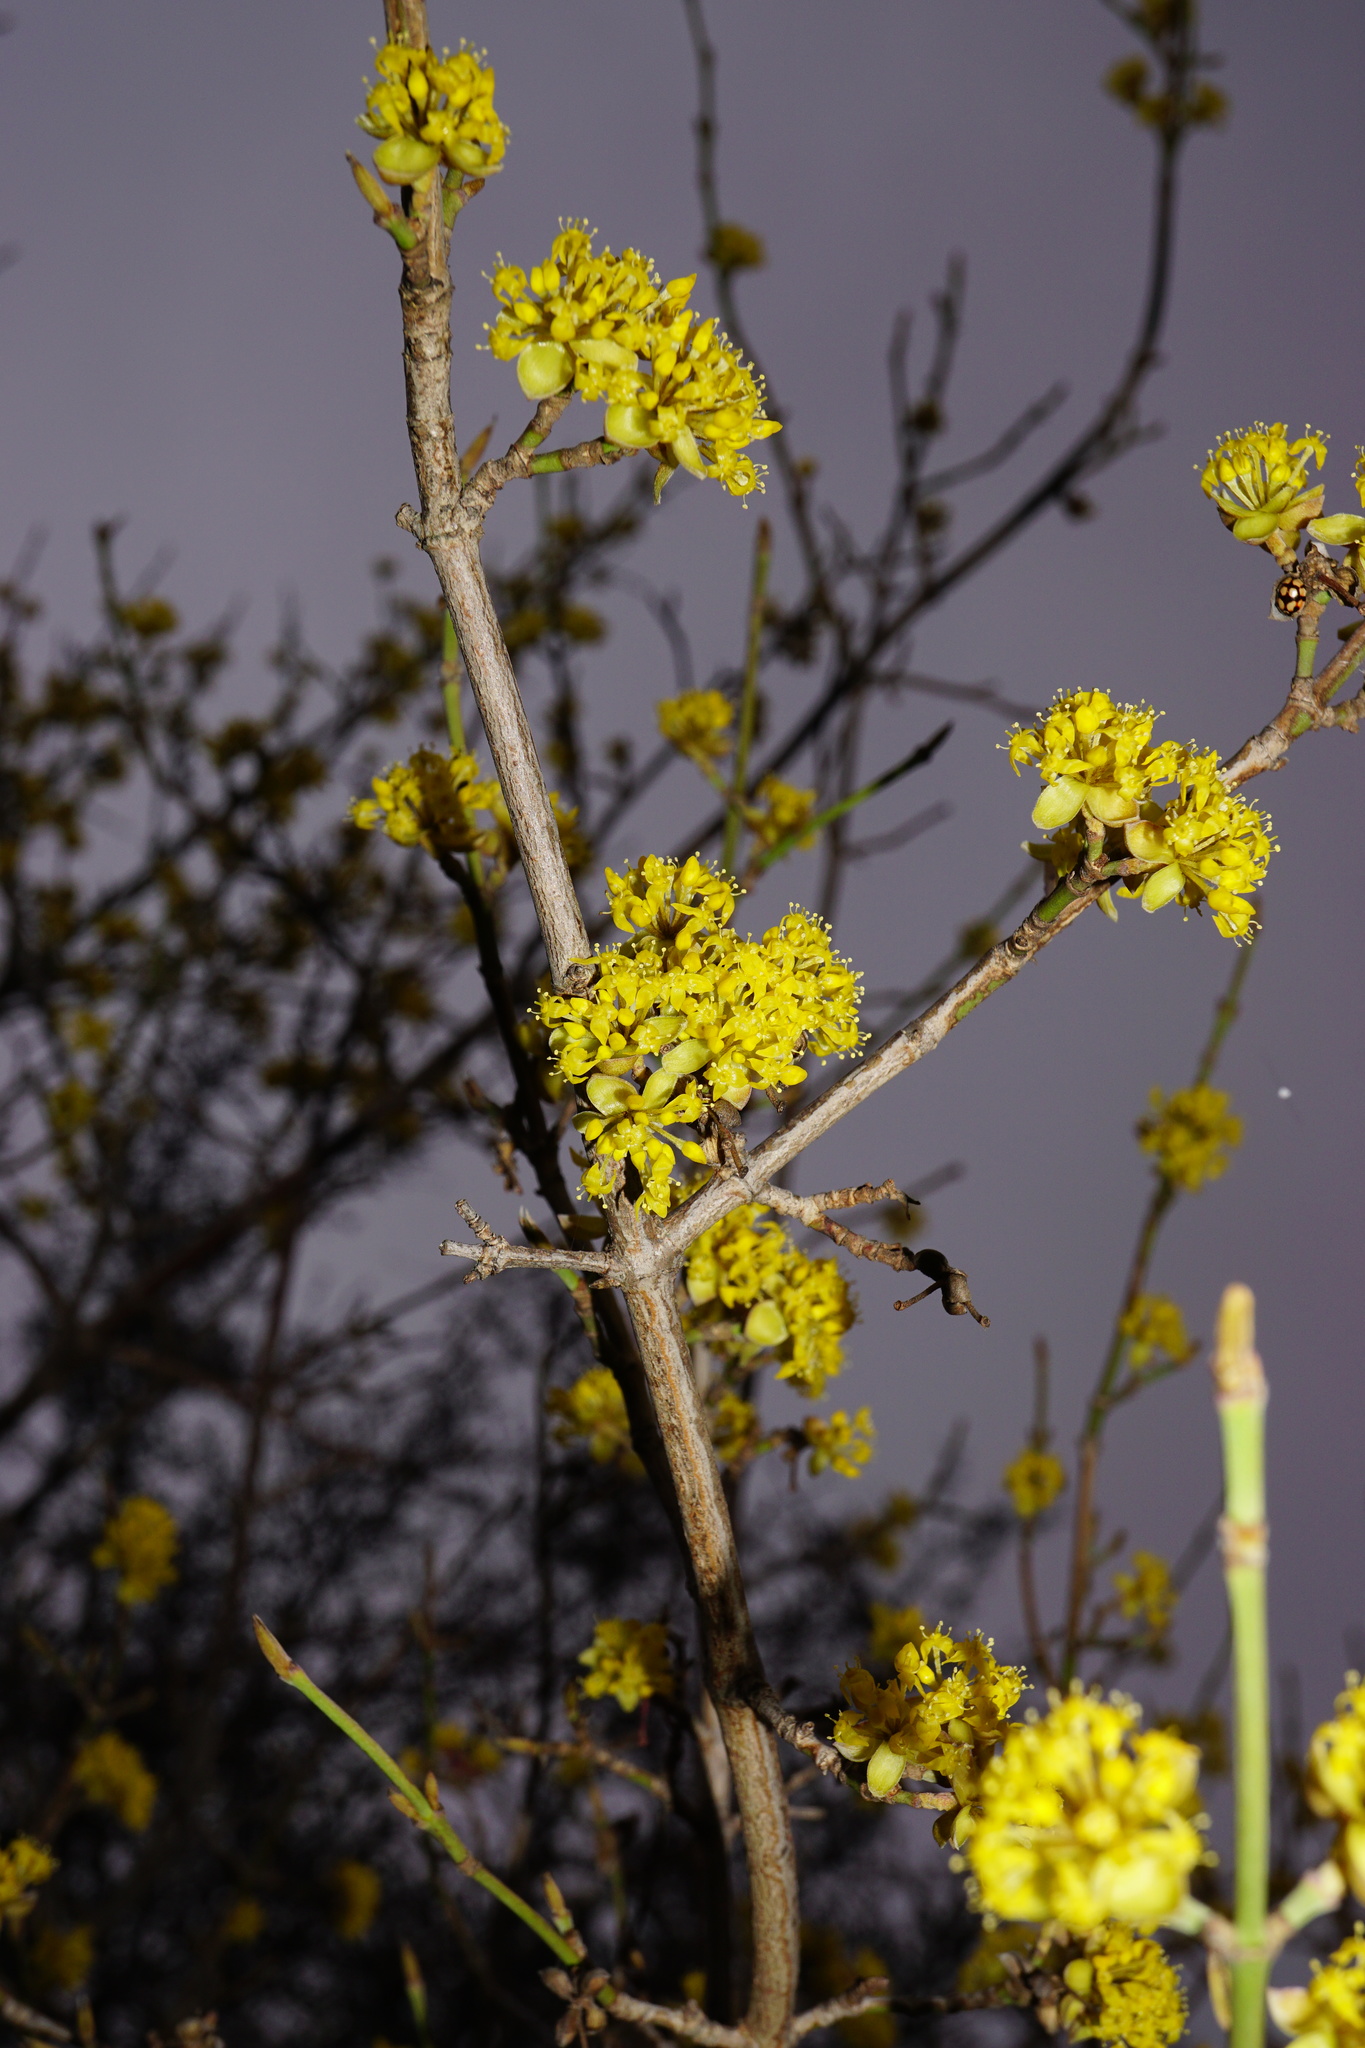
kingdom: Plantae
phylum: Tracheophyta
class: Magnoliopsida
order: Cornales
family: Cornaceae
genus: Cornus
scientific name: Cornus mas
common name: Cornelian-cherry
